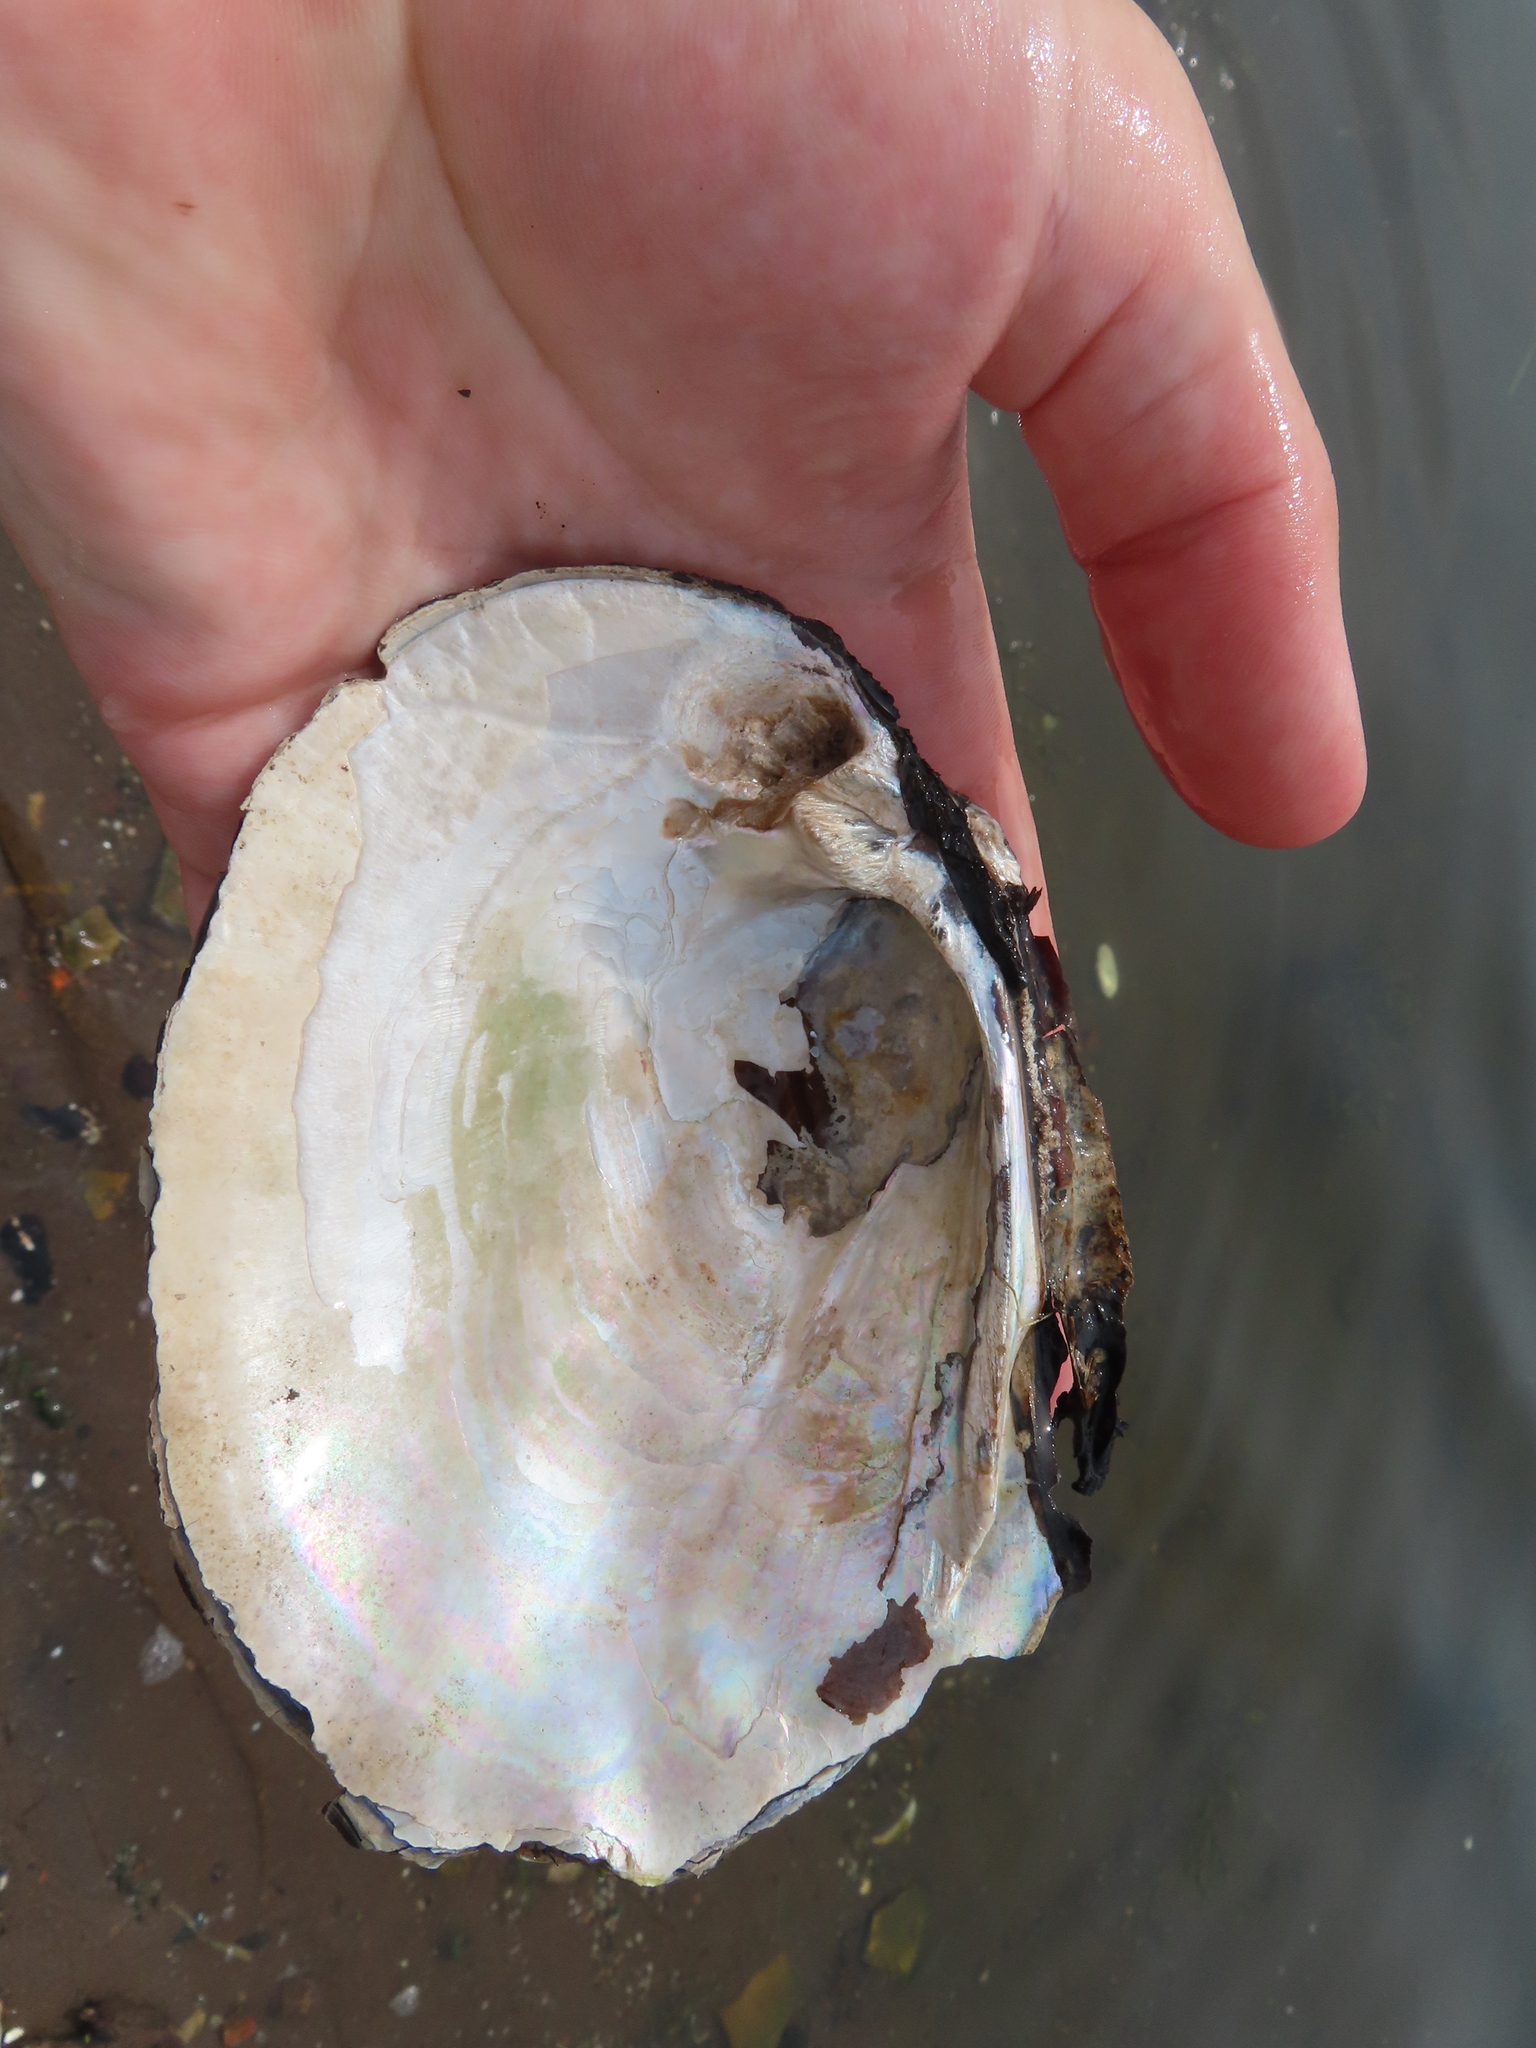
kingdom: Animalia
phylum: Mollusca
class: Bivalvia
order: Unionida
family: Unionidae
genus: Megalonaias
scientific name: Megalonaias nervosa
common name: Washboard
